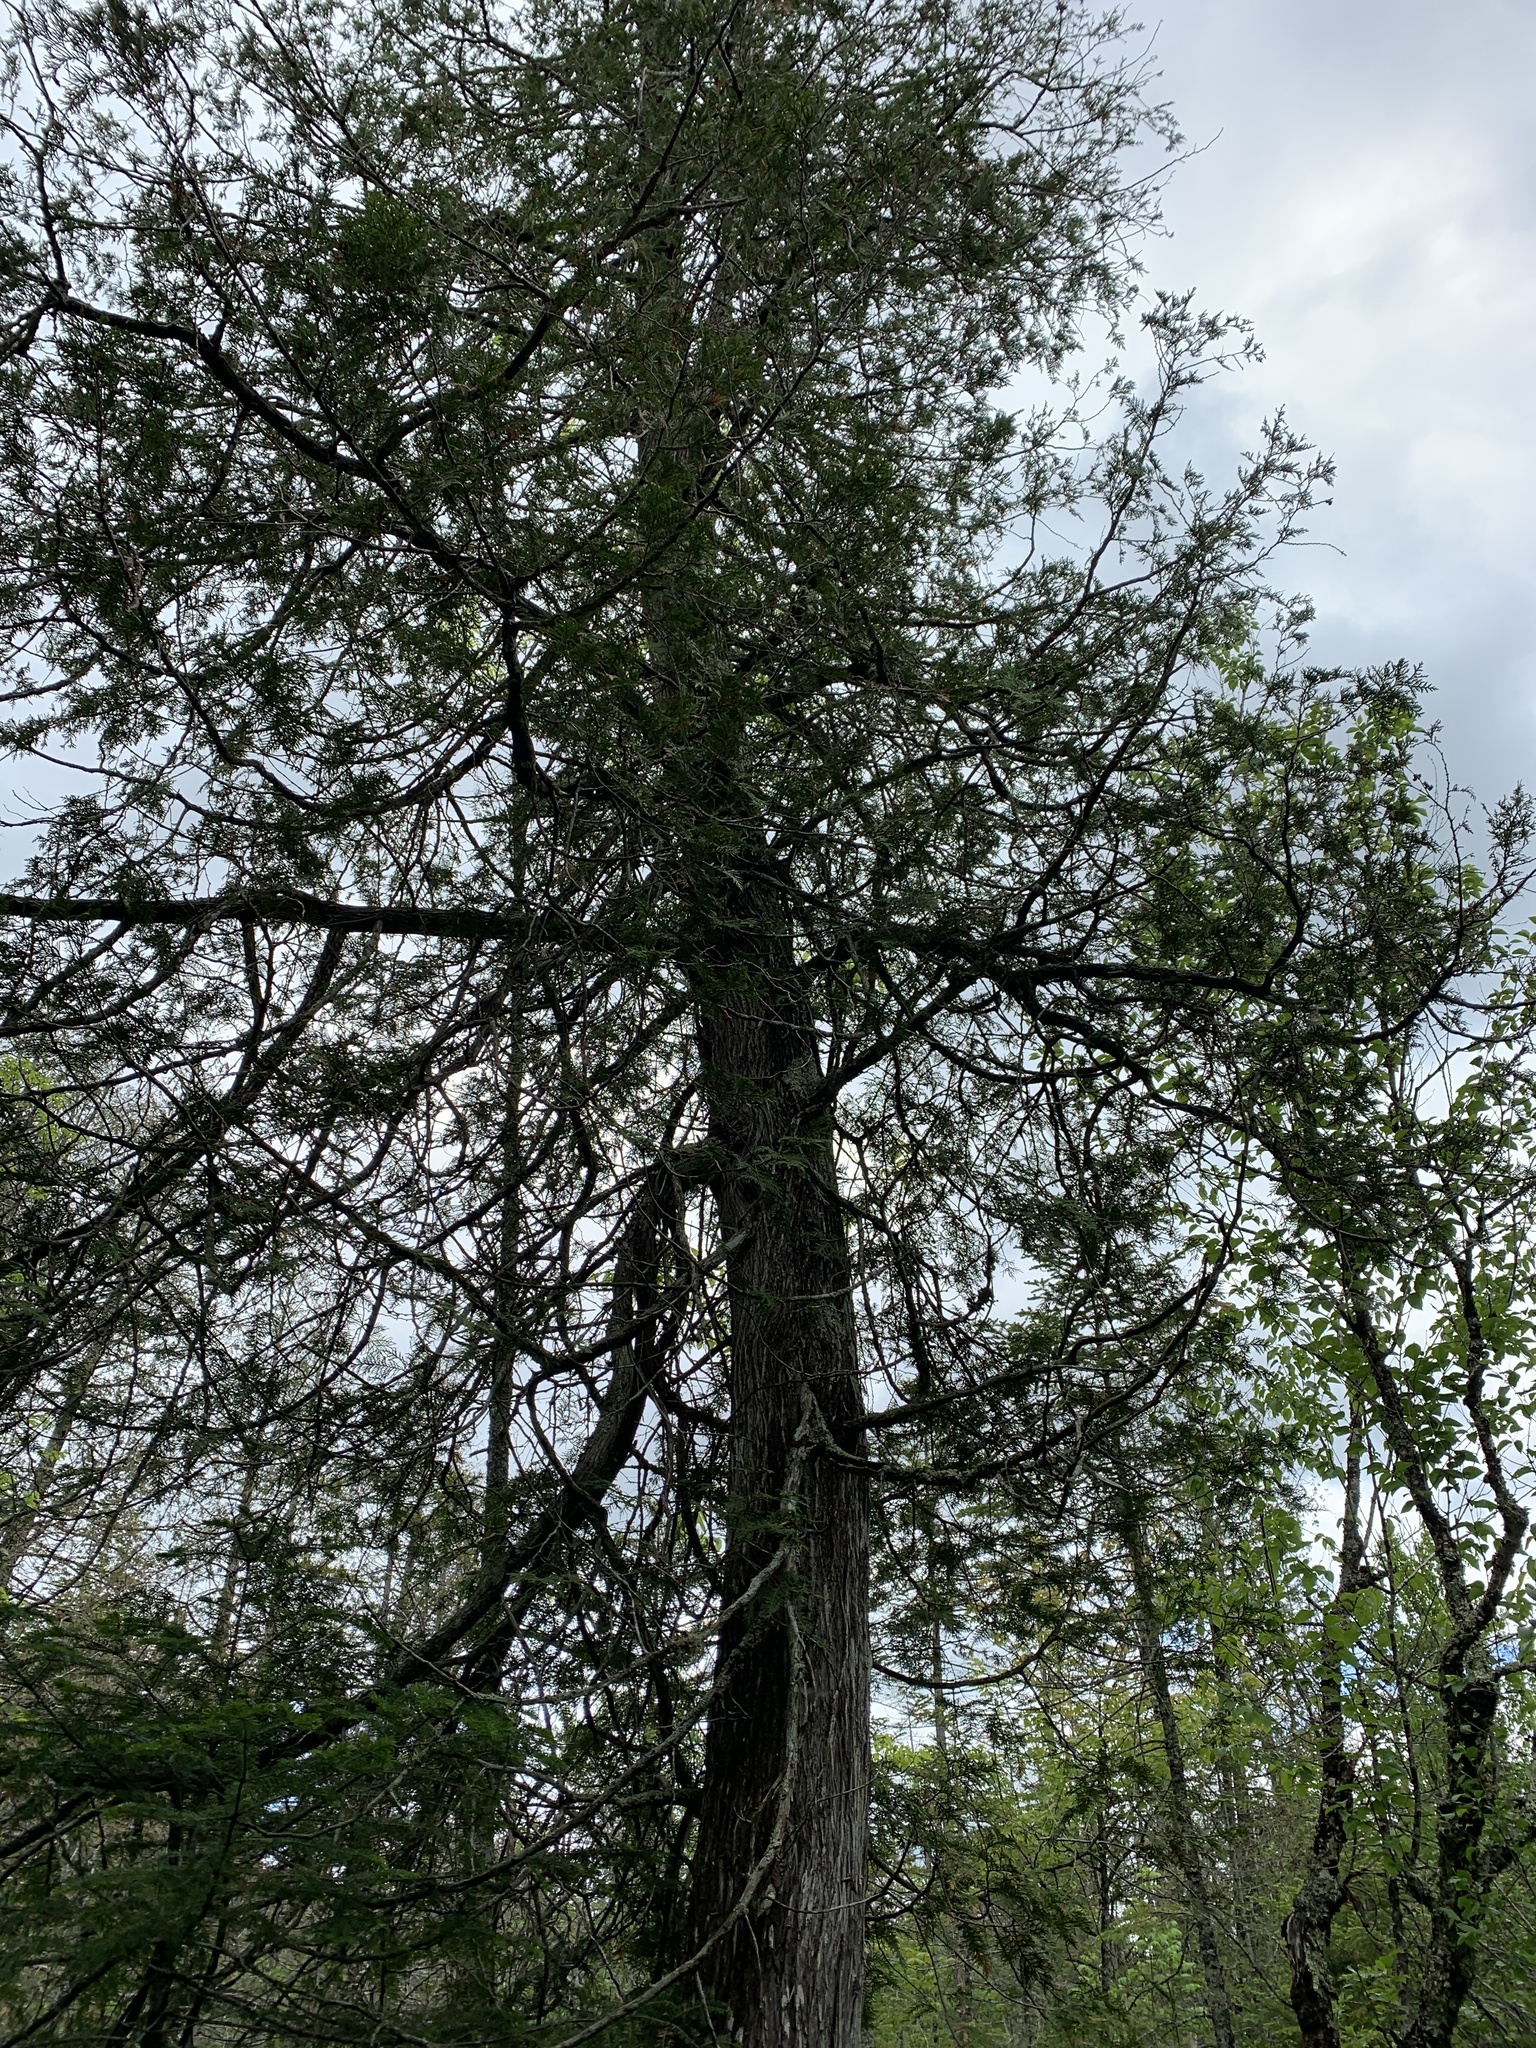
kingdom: Plantae
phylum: Tracheophyta
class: Pinopsida
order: Pinales
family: Cupressaceae
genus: Thuja
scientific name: Thuja occidentalis
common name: Northern white-cedar
